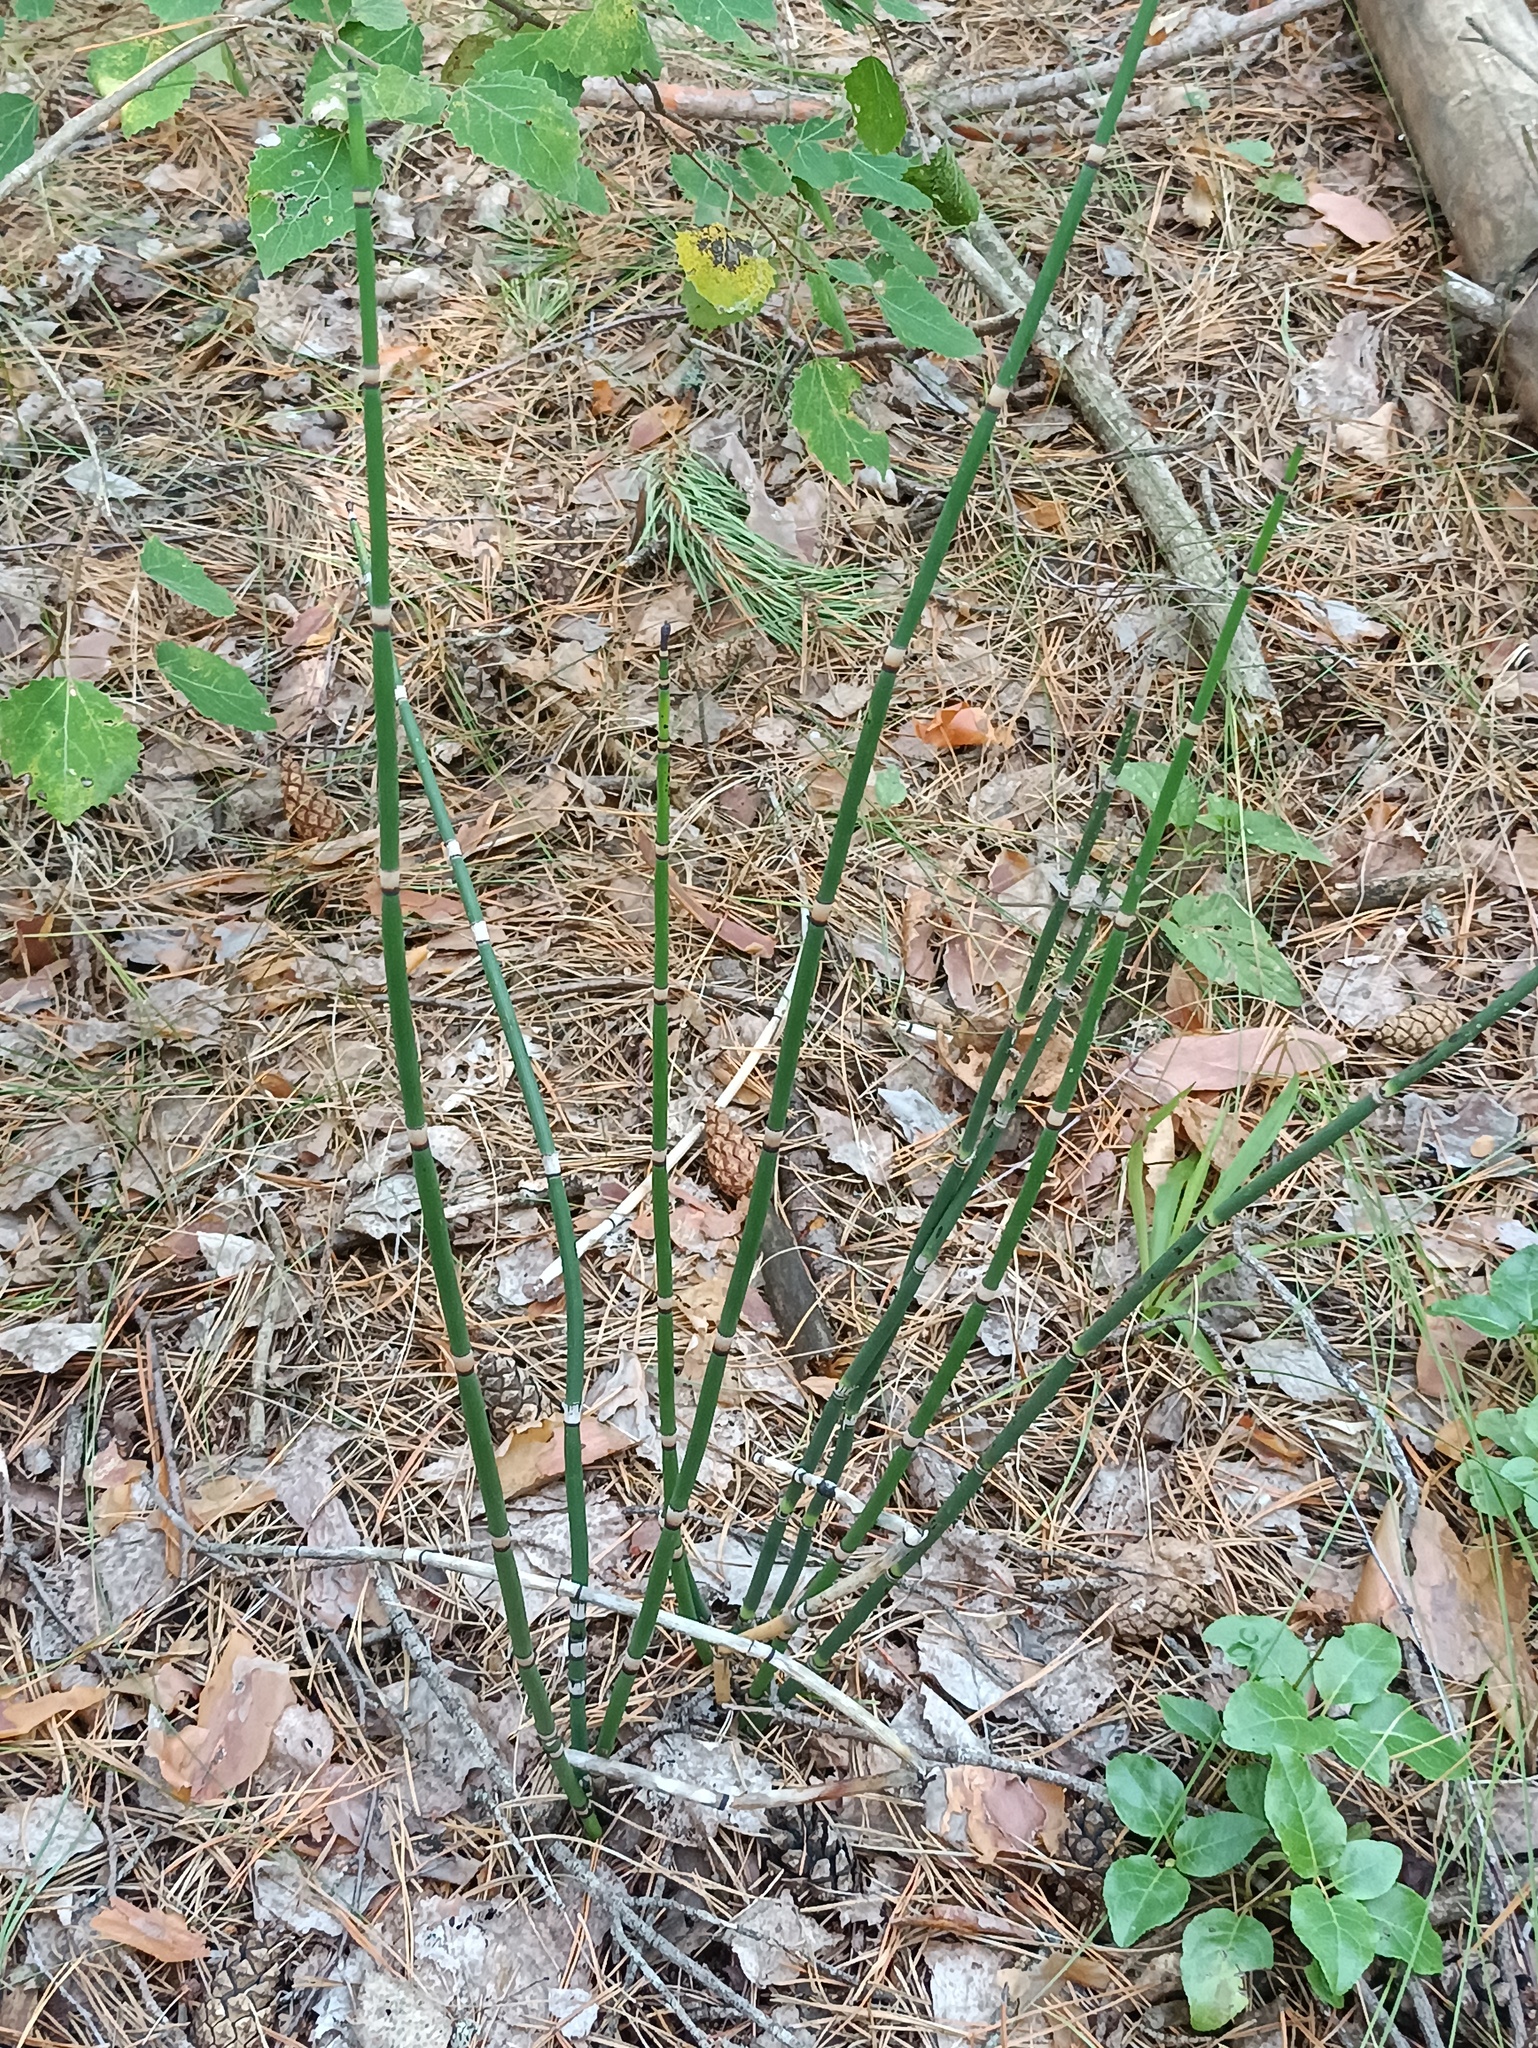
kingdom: Plantae
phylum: Tracheophyta
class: Polypodiopsida
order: Equisetales
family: Equisetaceae
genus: Equisetum
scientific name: Equisetum hyemale
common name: Rough horsetail
